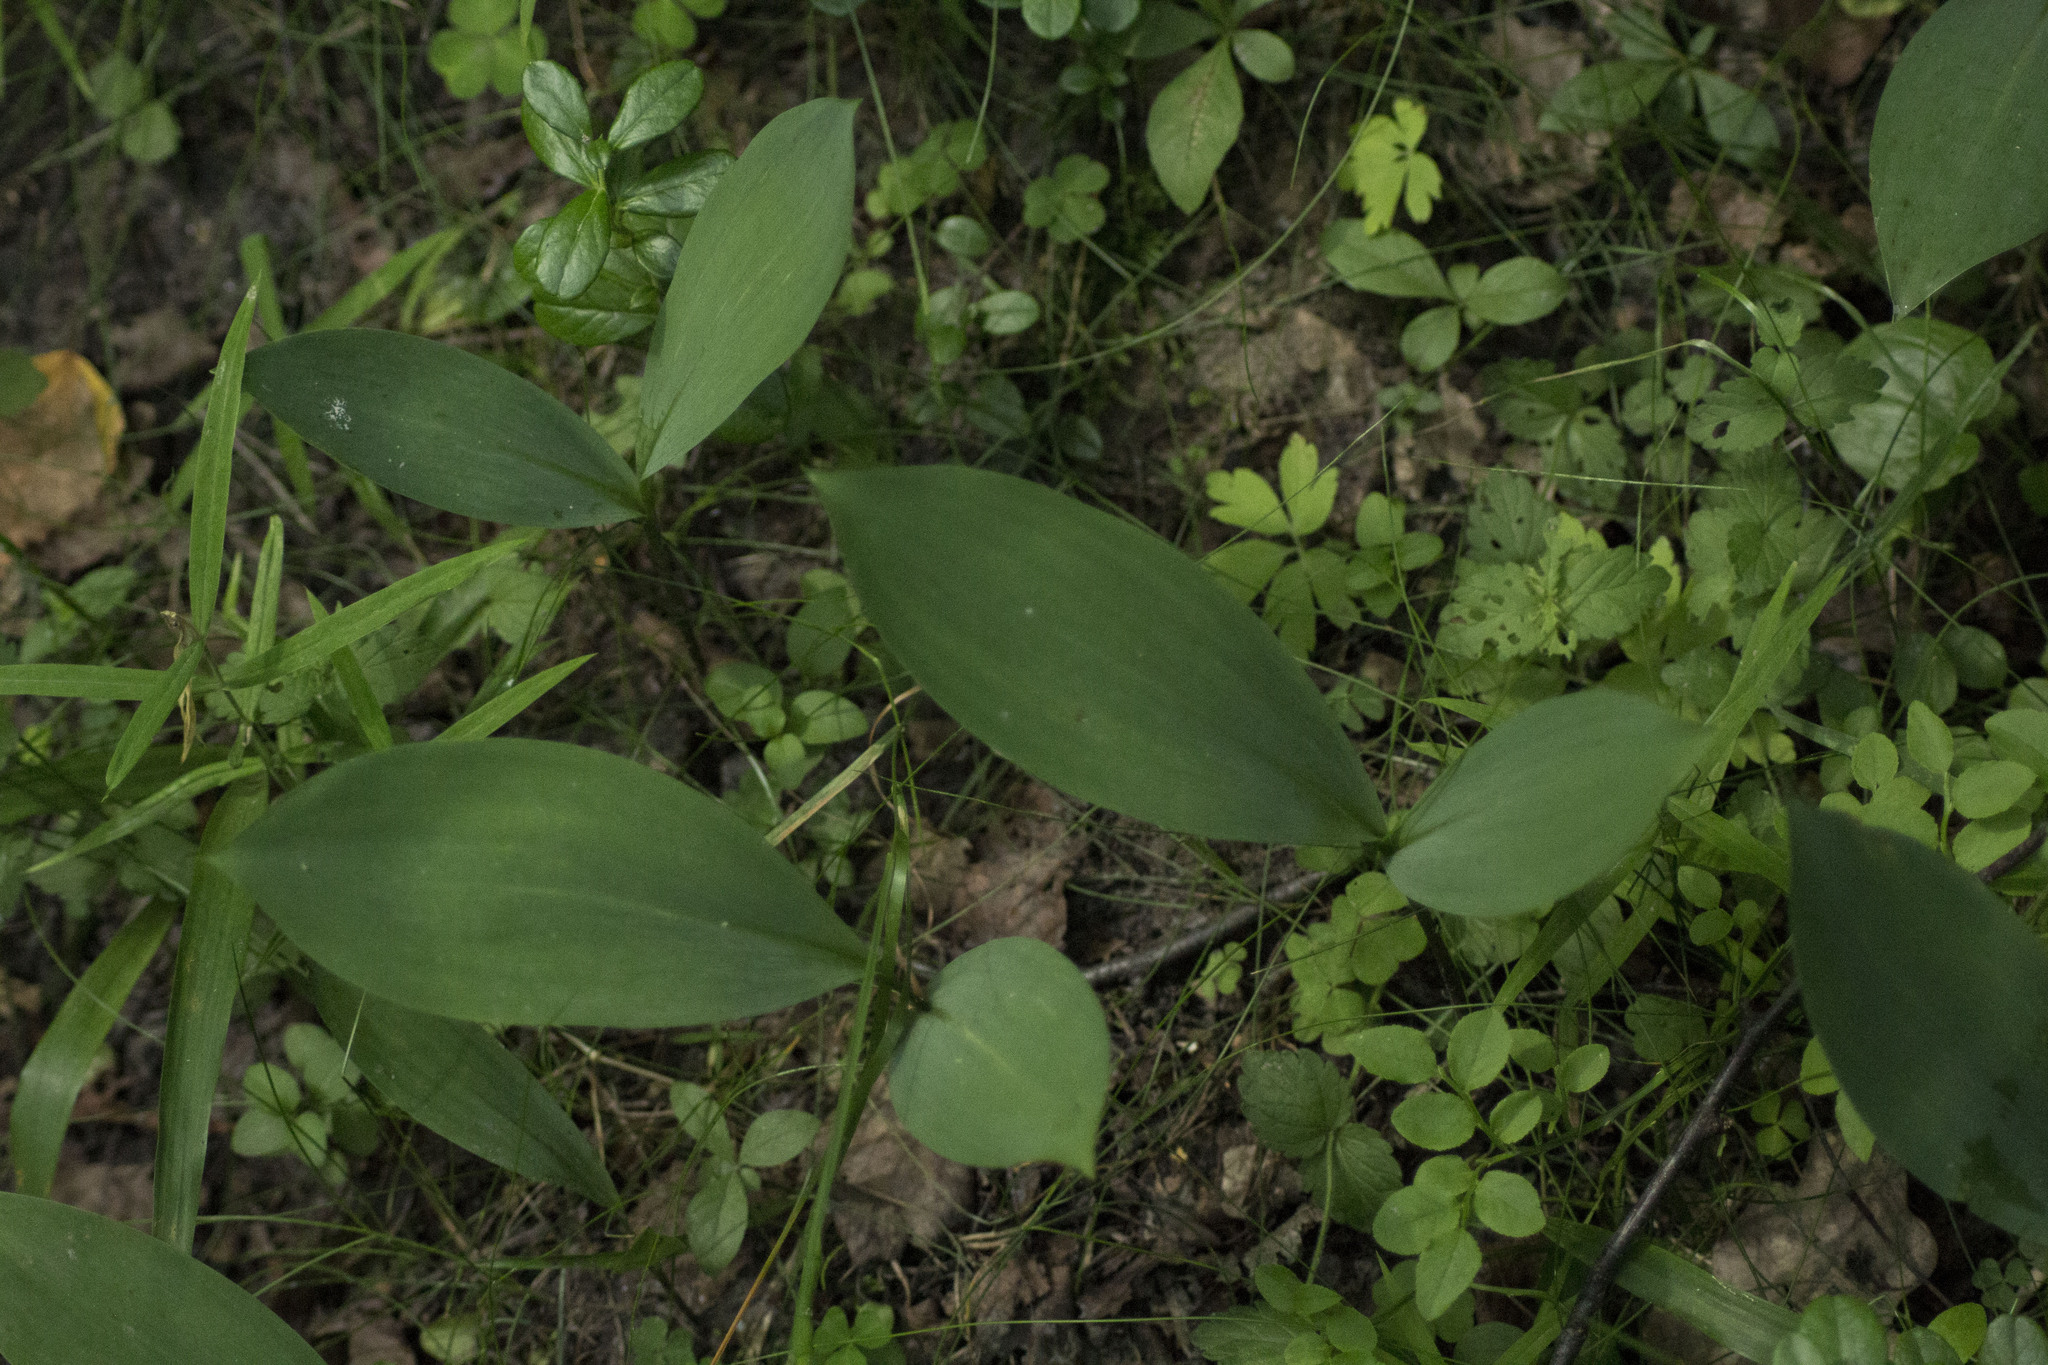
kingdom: Plantae
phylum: Tracheophyta
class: Liliopsida
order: Asparagales
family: Asparagaceae
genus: Convallaria
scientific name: Convallaria majalis
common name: Lily-of-the-valley
